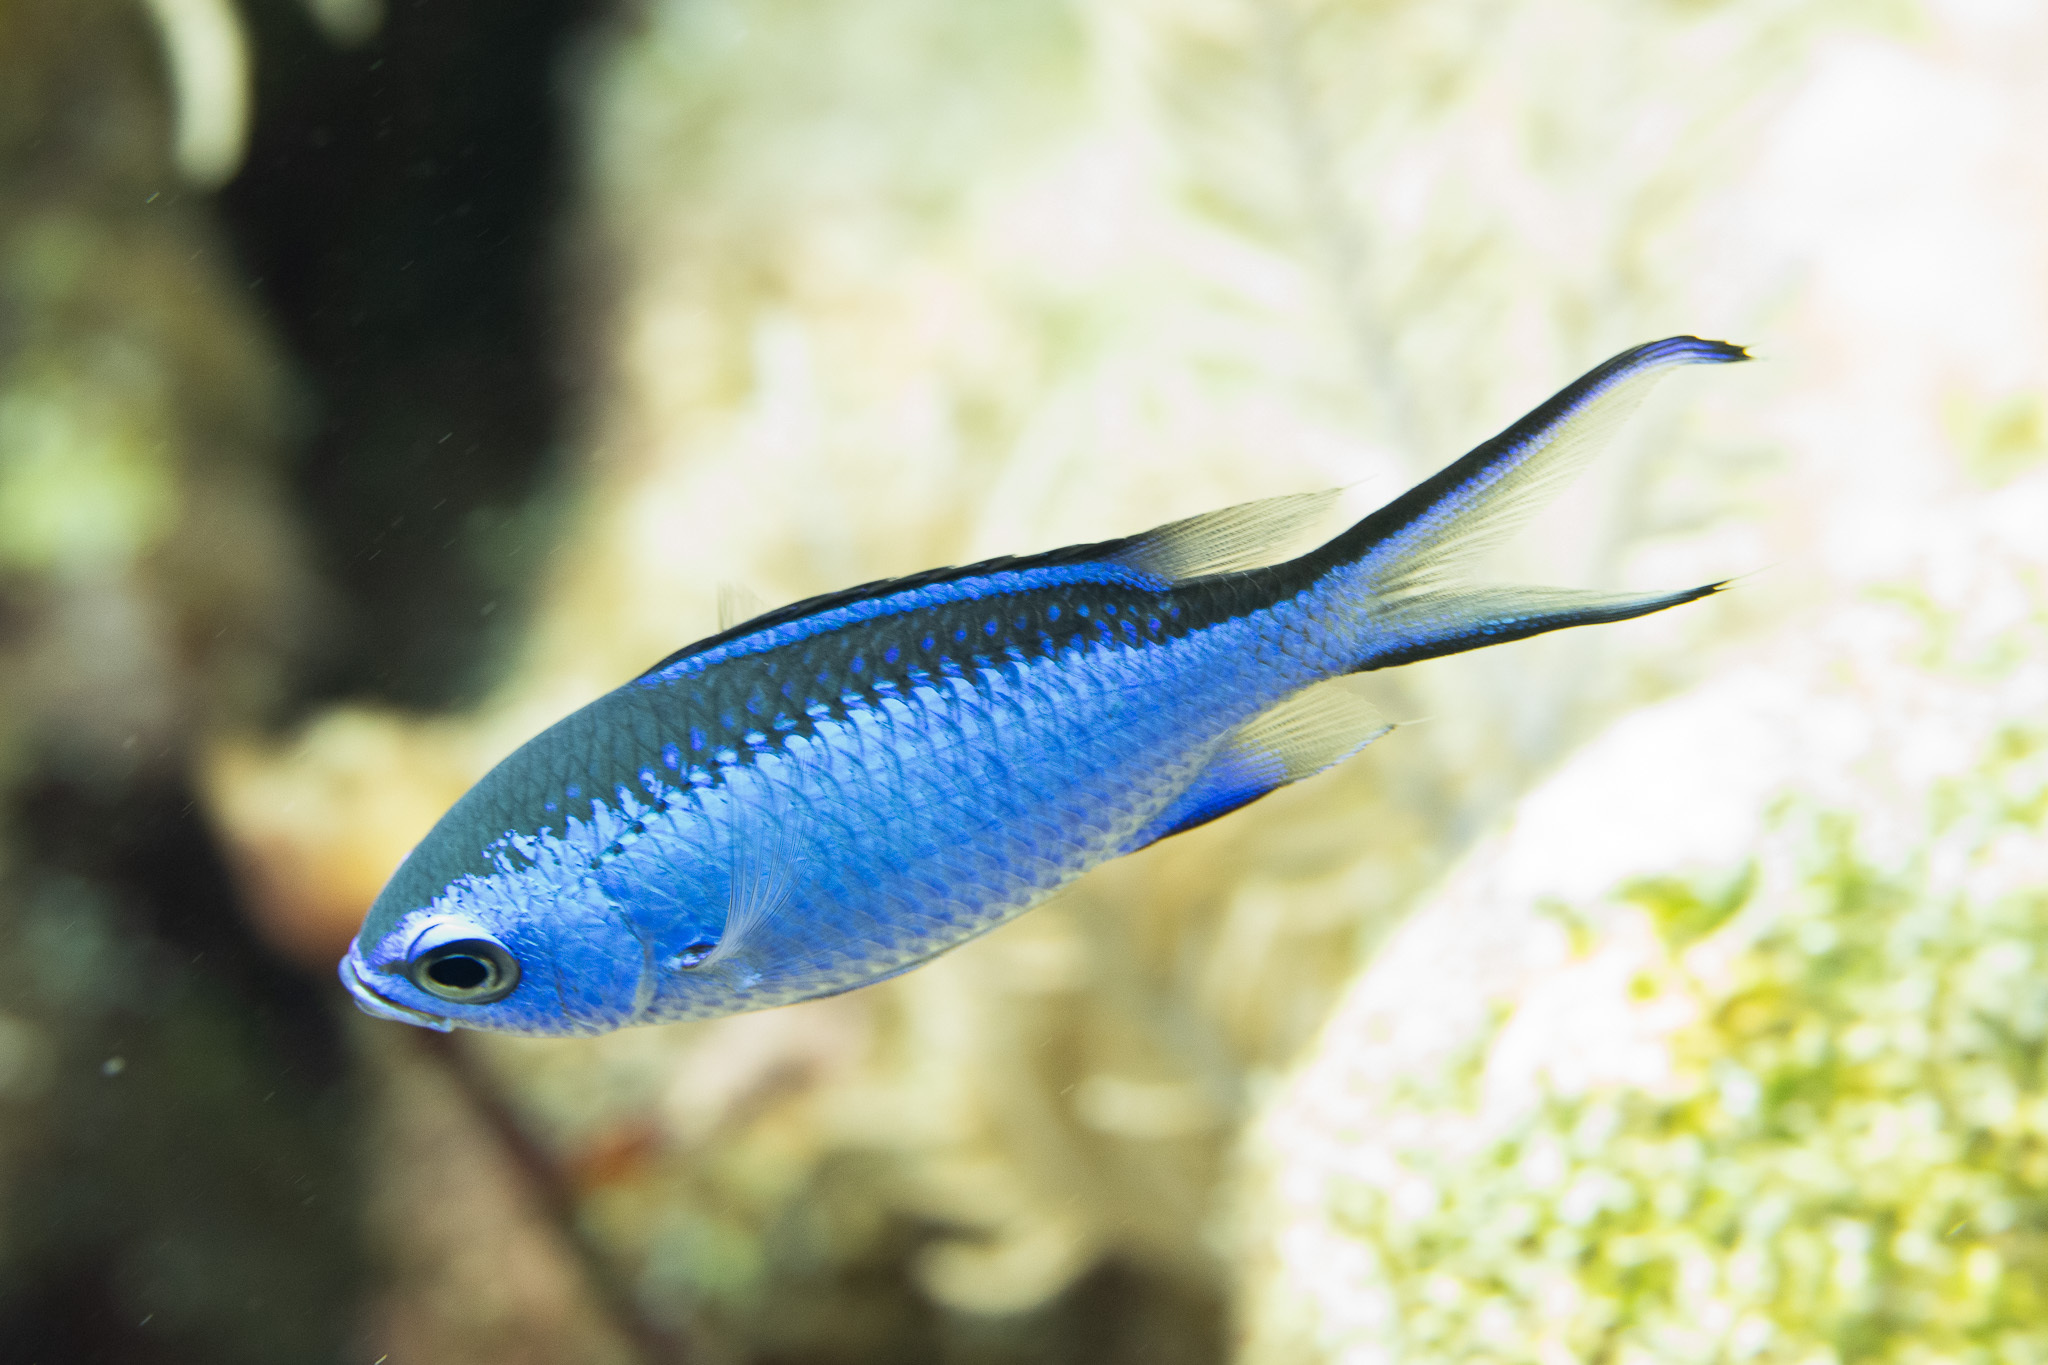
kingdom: Animalia
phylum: Chordata
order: Perciformes
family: Pomacentridae
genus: Chromis
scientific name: Chromis cyanea
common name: Blue chromis
